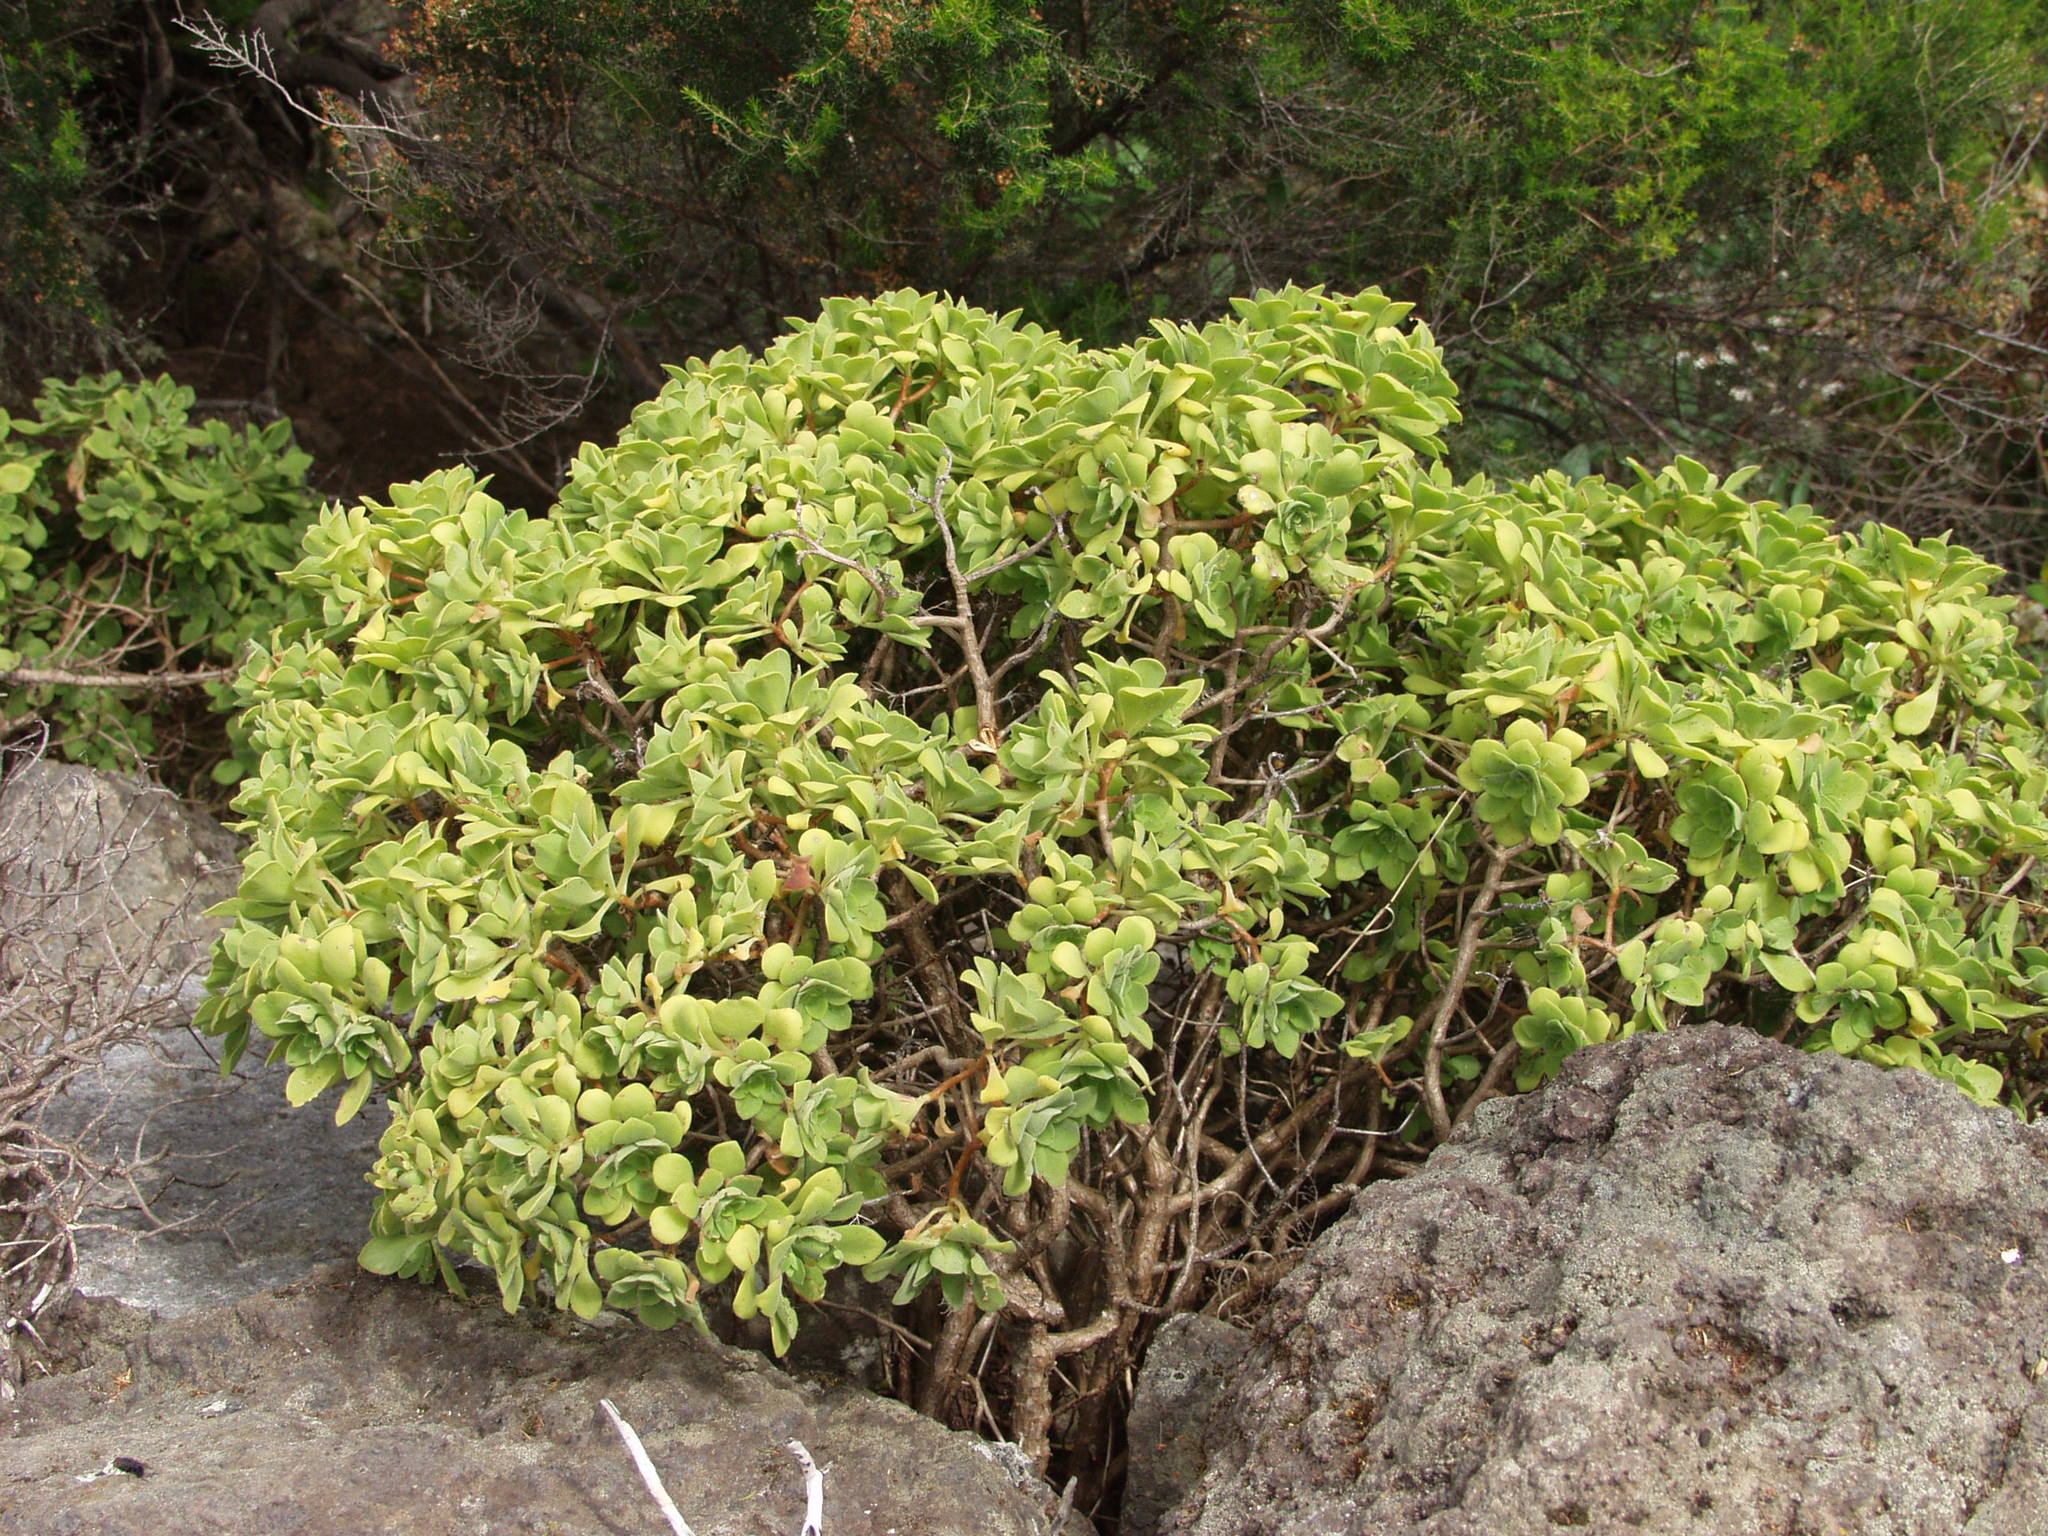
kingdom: Plantae
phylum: Tracheophyta
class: Magnoliopsida
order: Saxifragales
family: Crassulaceae
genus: Aeonium
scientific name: Aeonium goochiae
